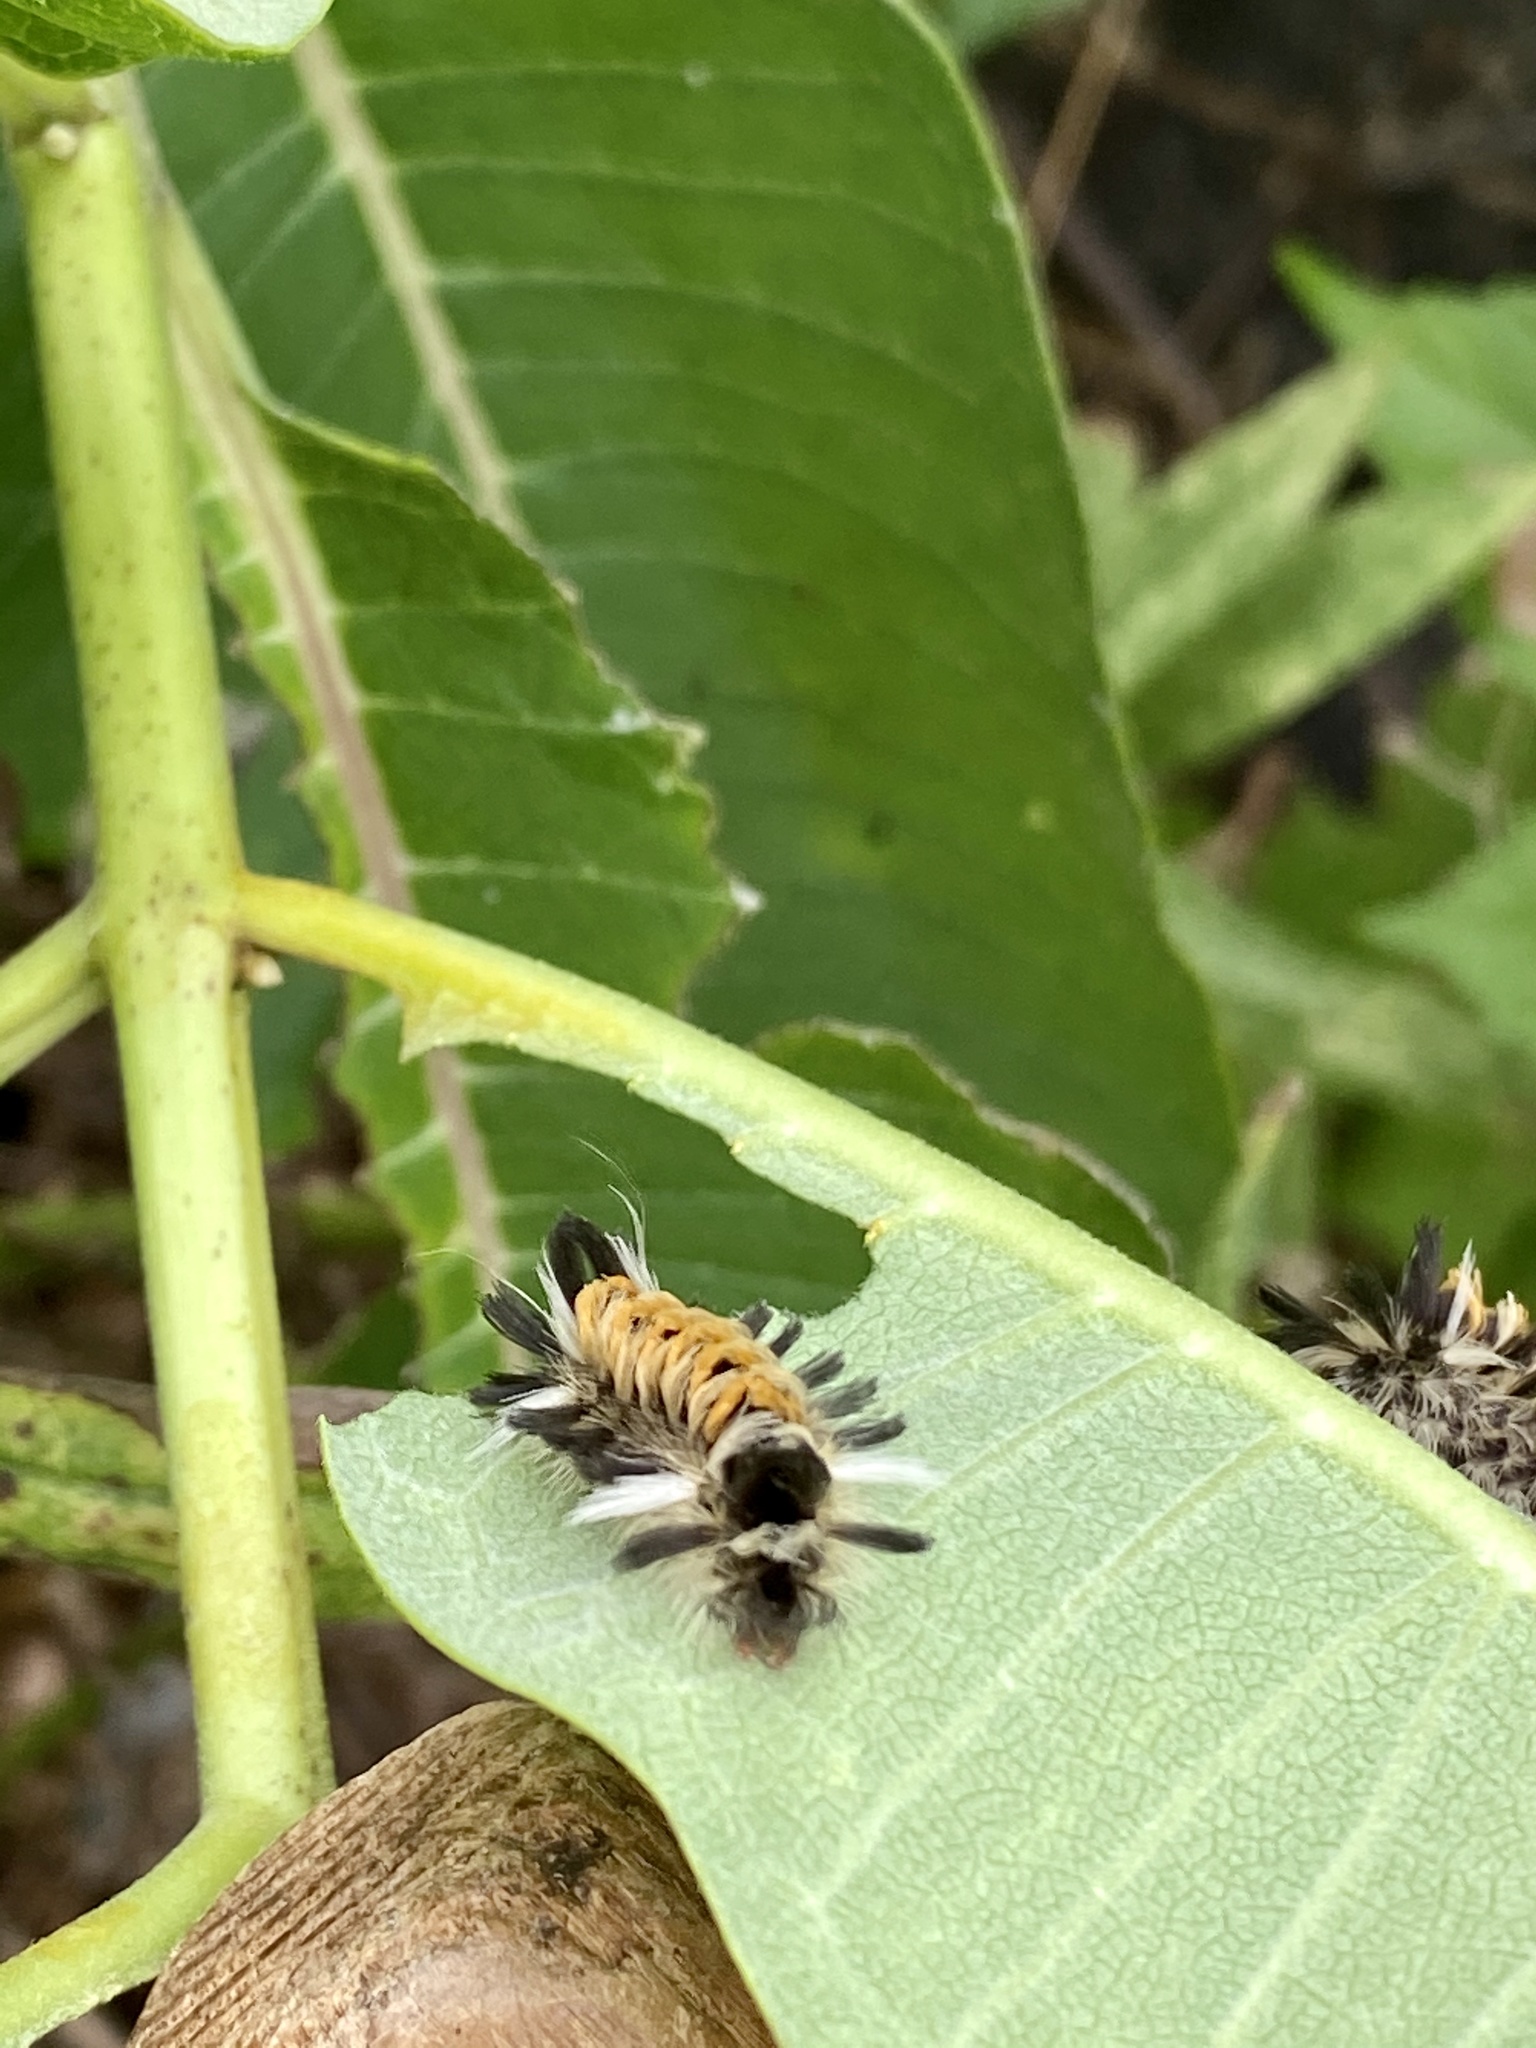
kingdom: Animalia
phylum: Arthropoda
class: Insecta
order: Lepidoptera
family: Erebidae
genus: Euchaetes
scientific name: Euchaetes egle
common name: Milkweed tussock moth
